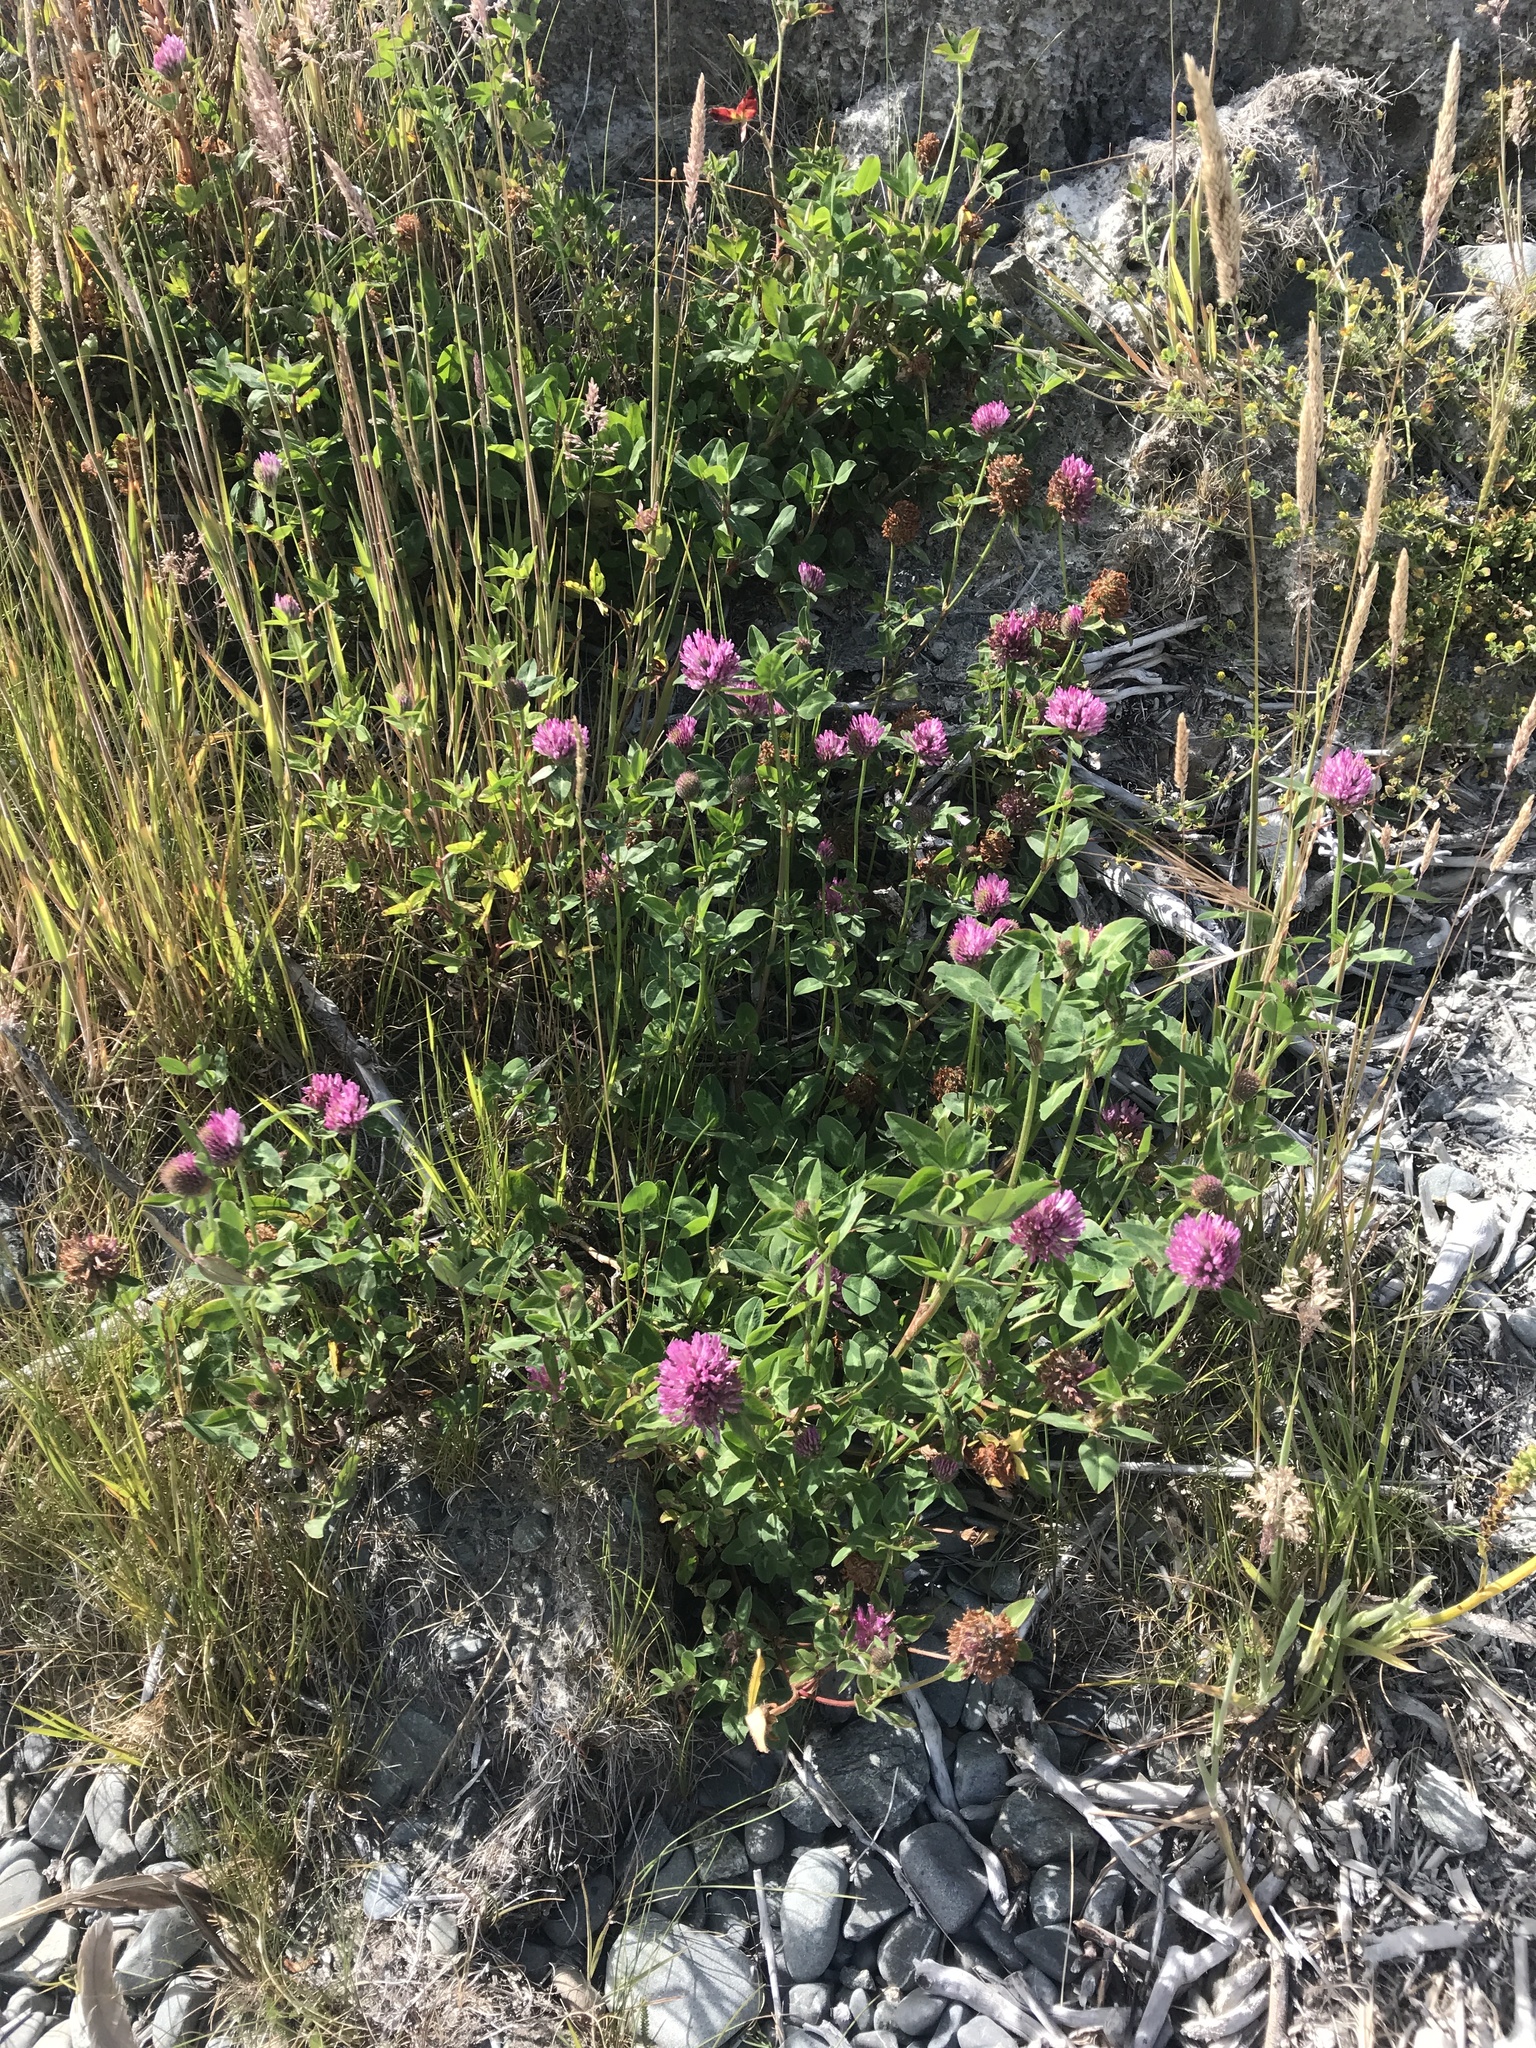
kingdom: Plantae
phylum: Tracheophyta
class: Magnoliopsida
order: Fabales
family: Fabaceae
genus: Trifolium
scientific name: Trifolium pratense
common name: Red clover
